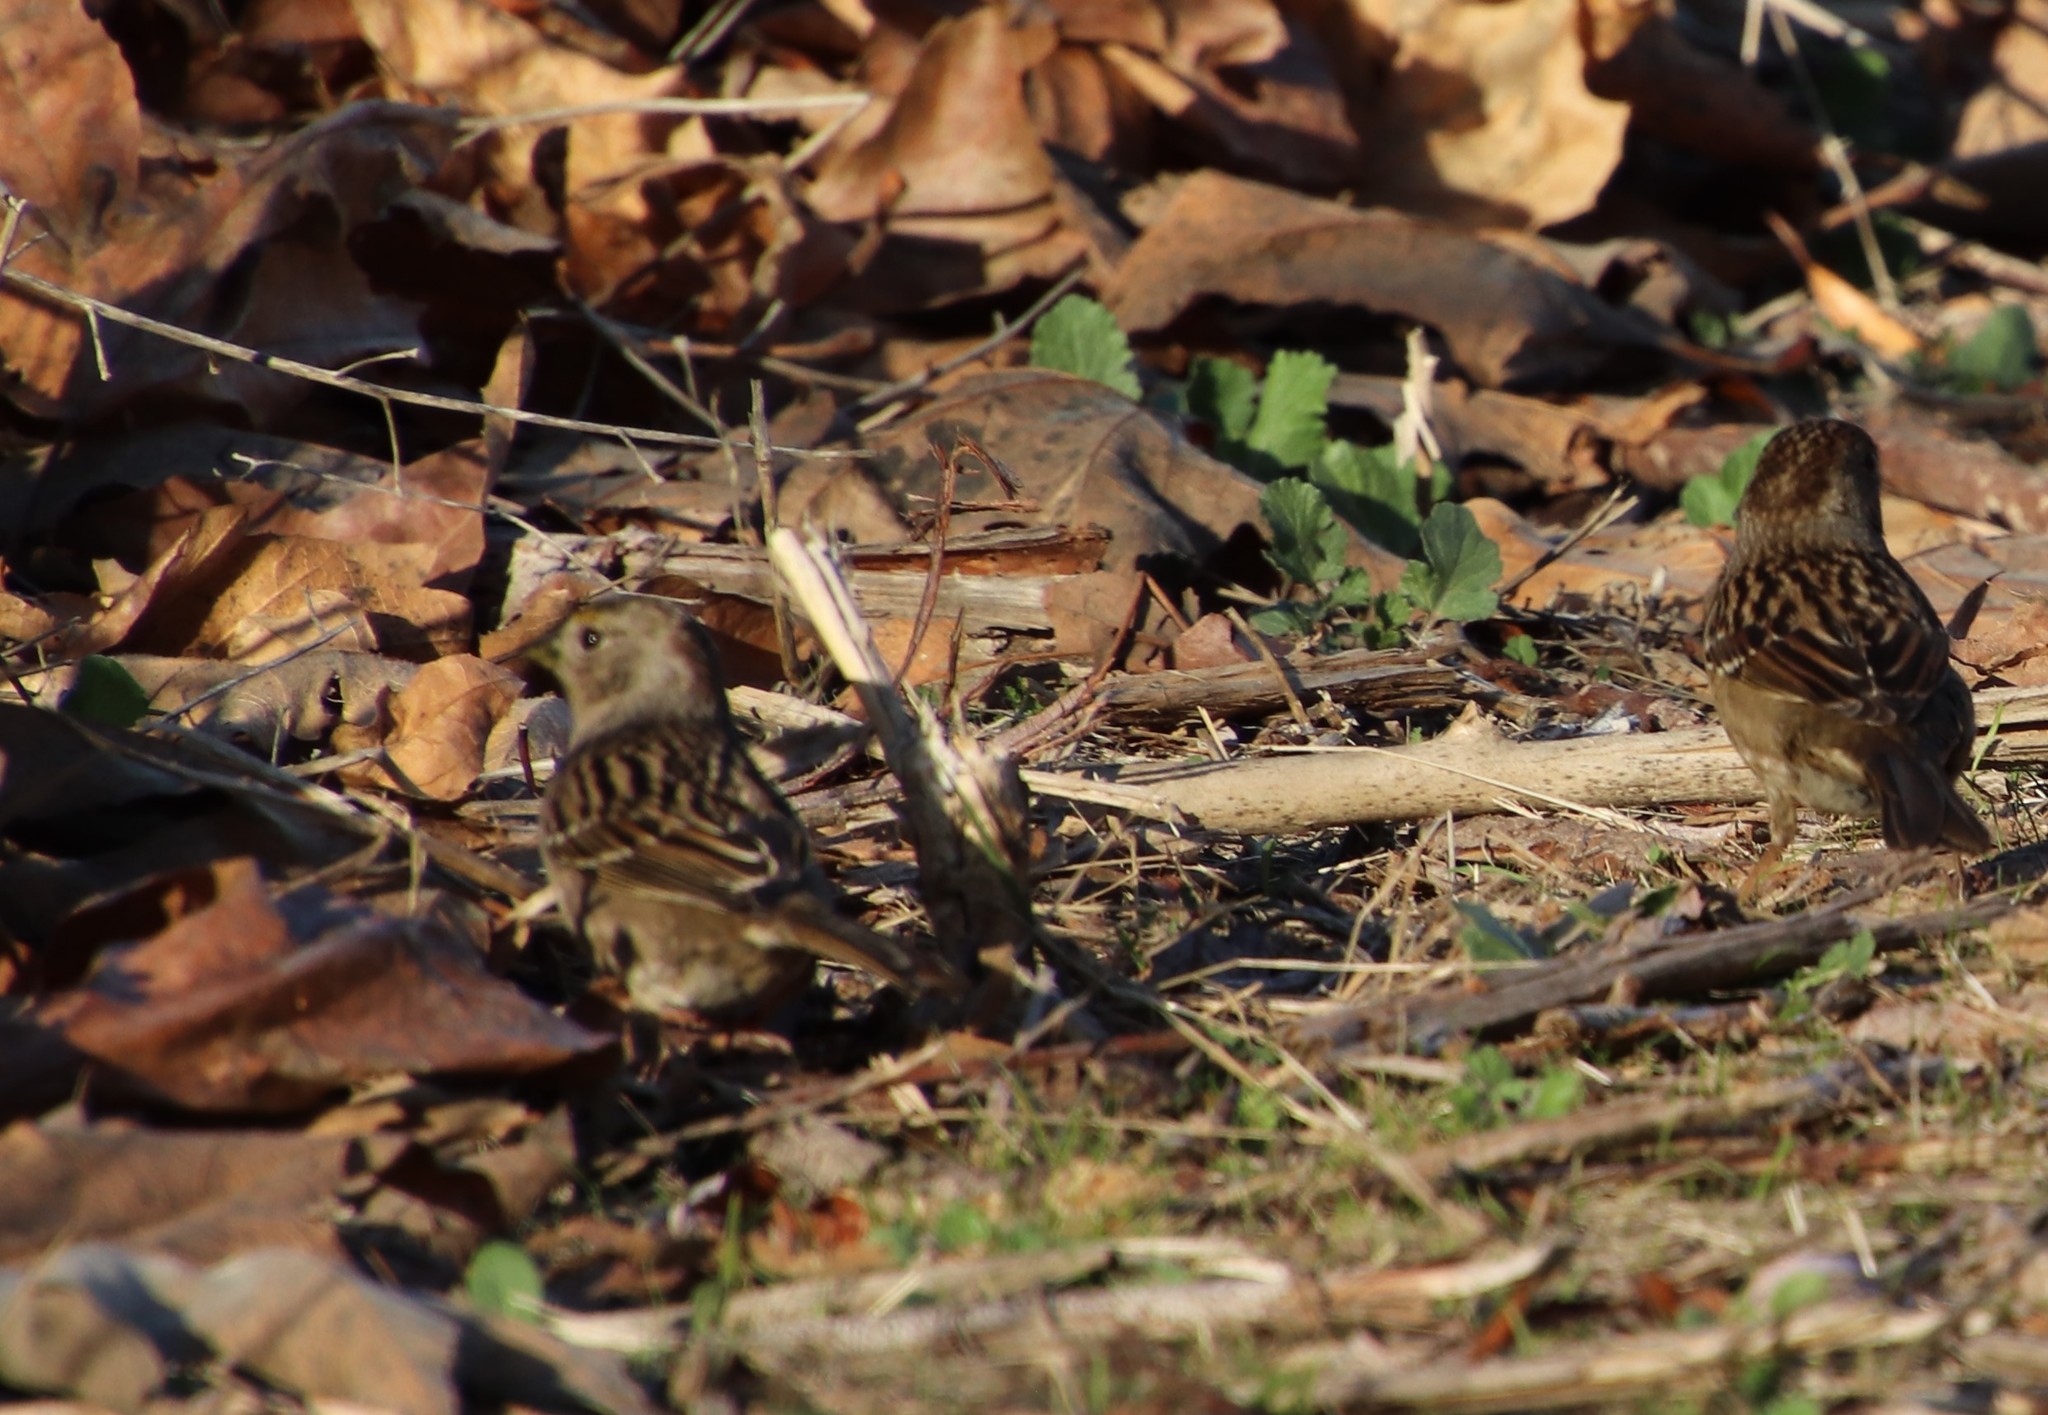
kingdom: Animalia
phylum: Chordata
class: Aves
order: Passeriformes
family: Passerellidae
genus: Zonotrichia
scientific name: Zonotrichia atricapilla
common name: Golden-crowned sparrow
